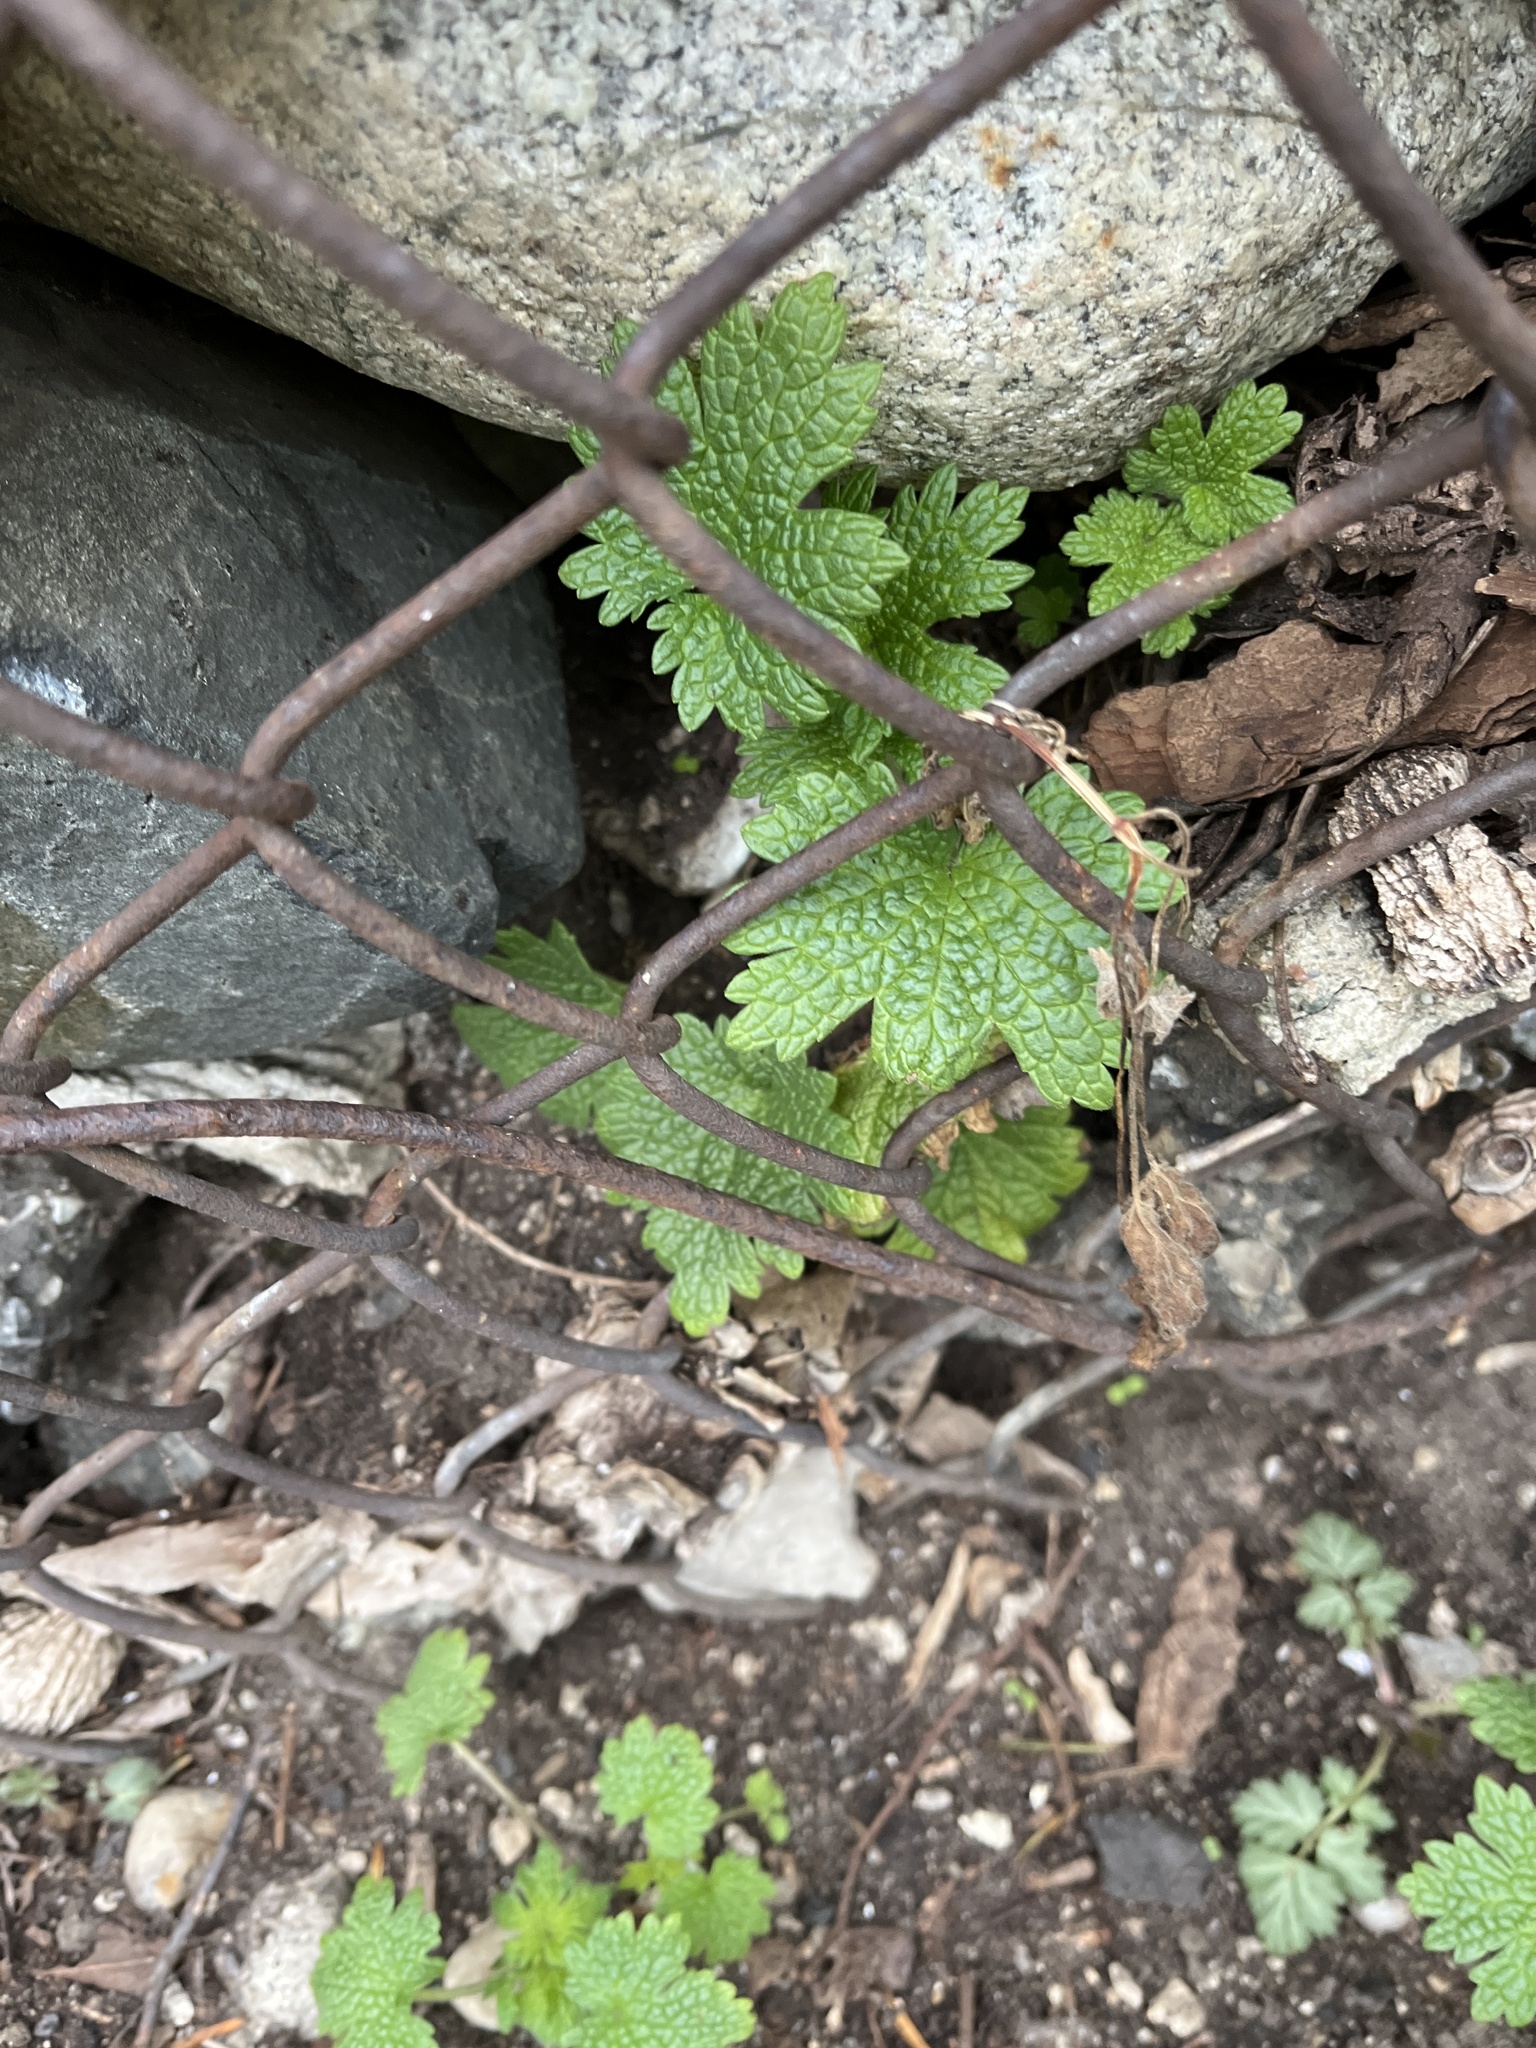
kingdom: Plantae
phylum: Tracheophyta
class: Magnoliopsida
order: Lamiales
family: Lamiaceae
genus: Leonurus
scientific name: Leonurus cardiaca
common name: Motherwort
